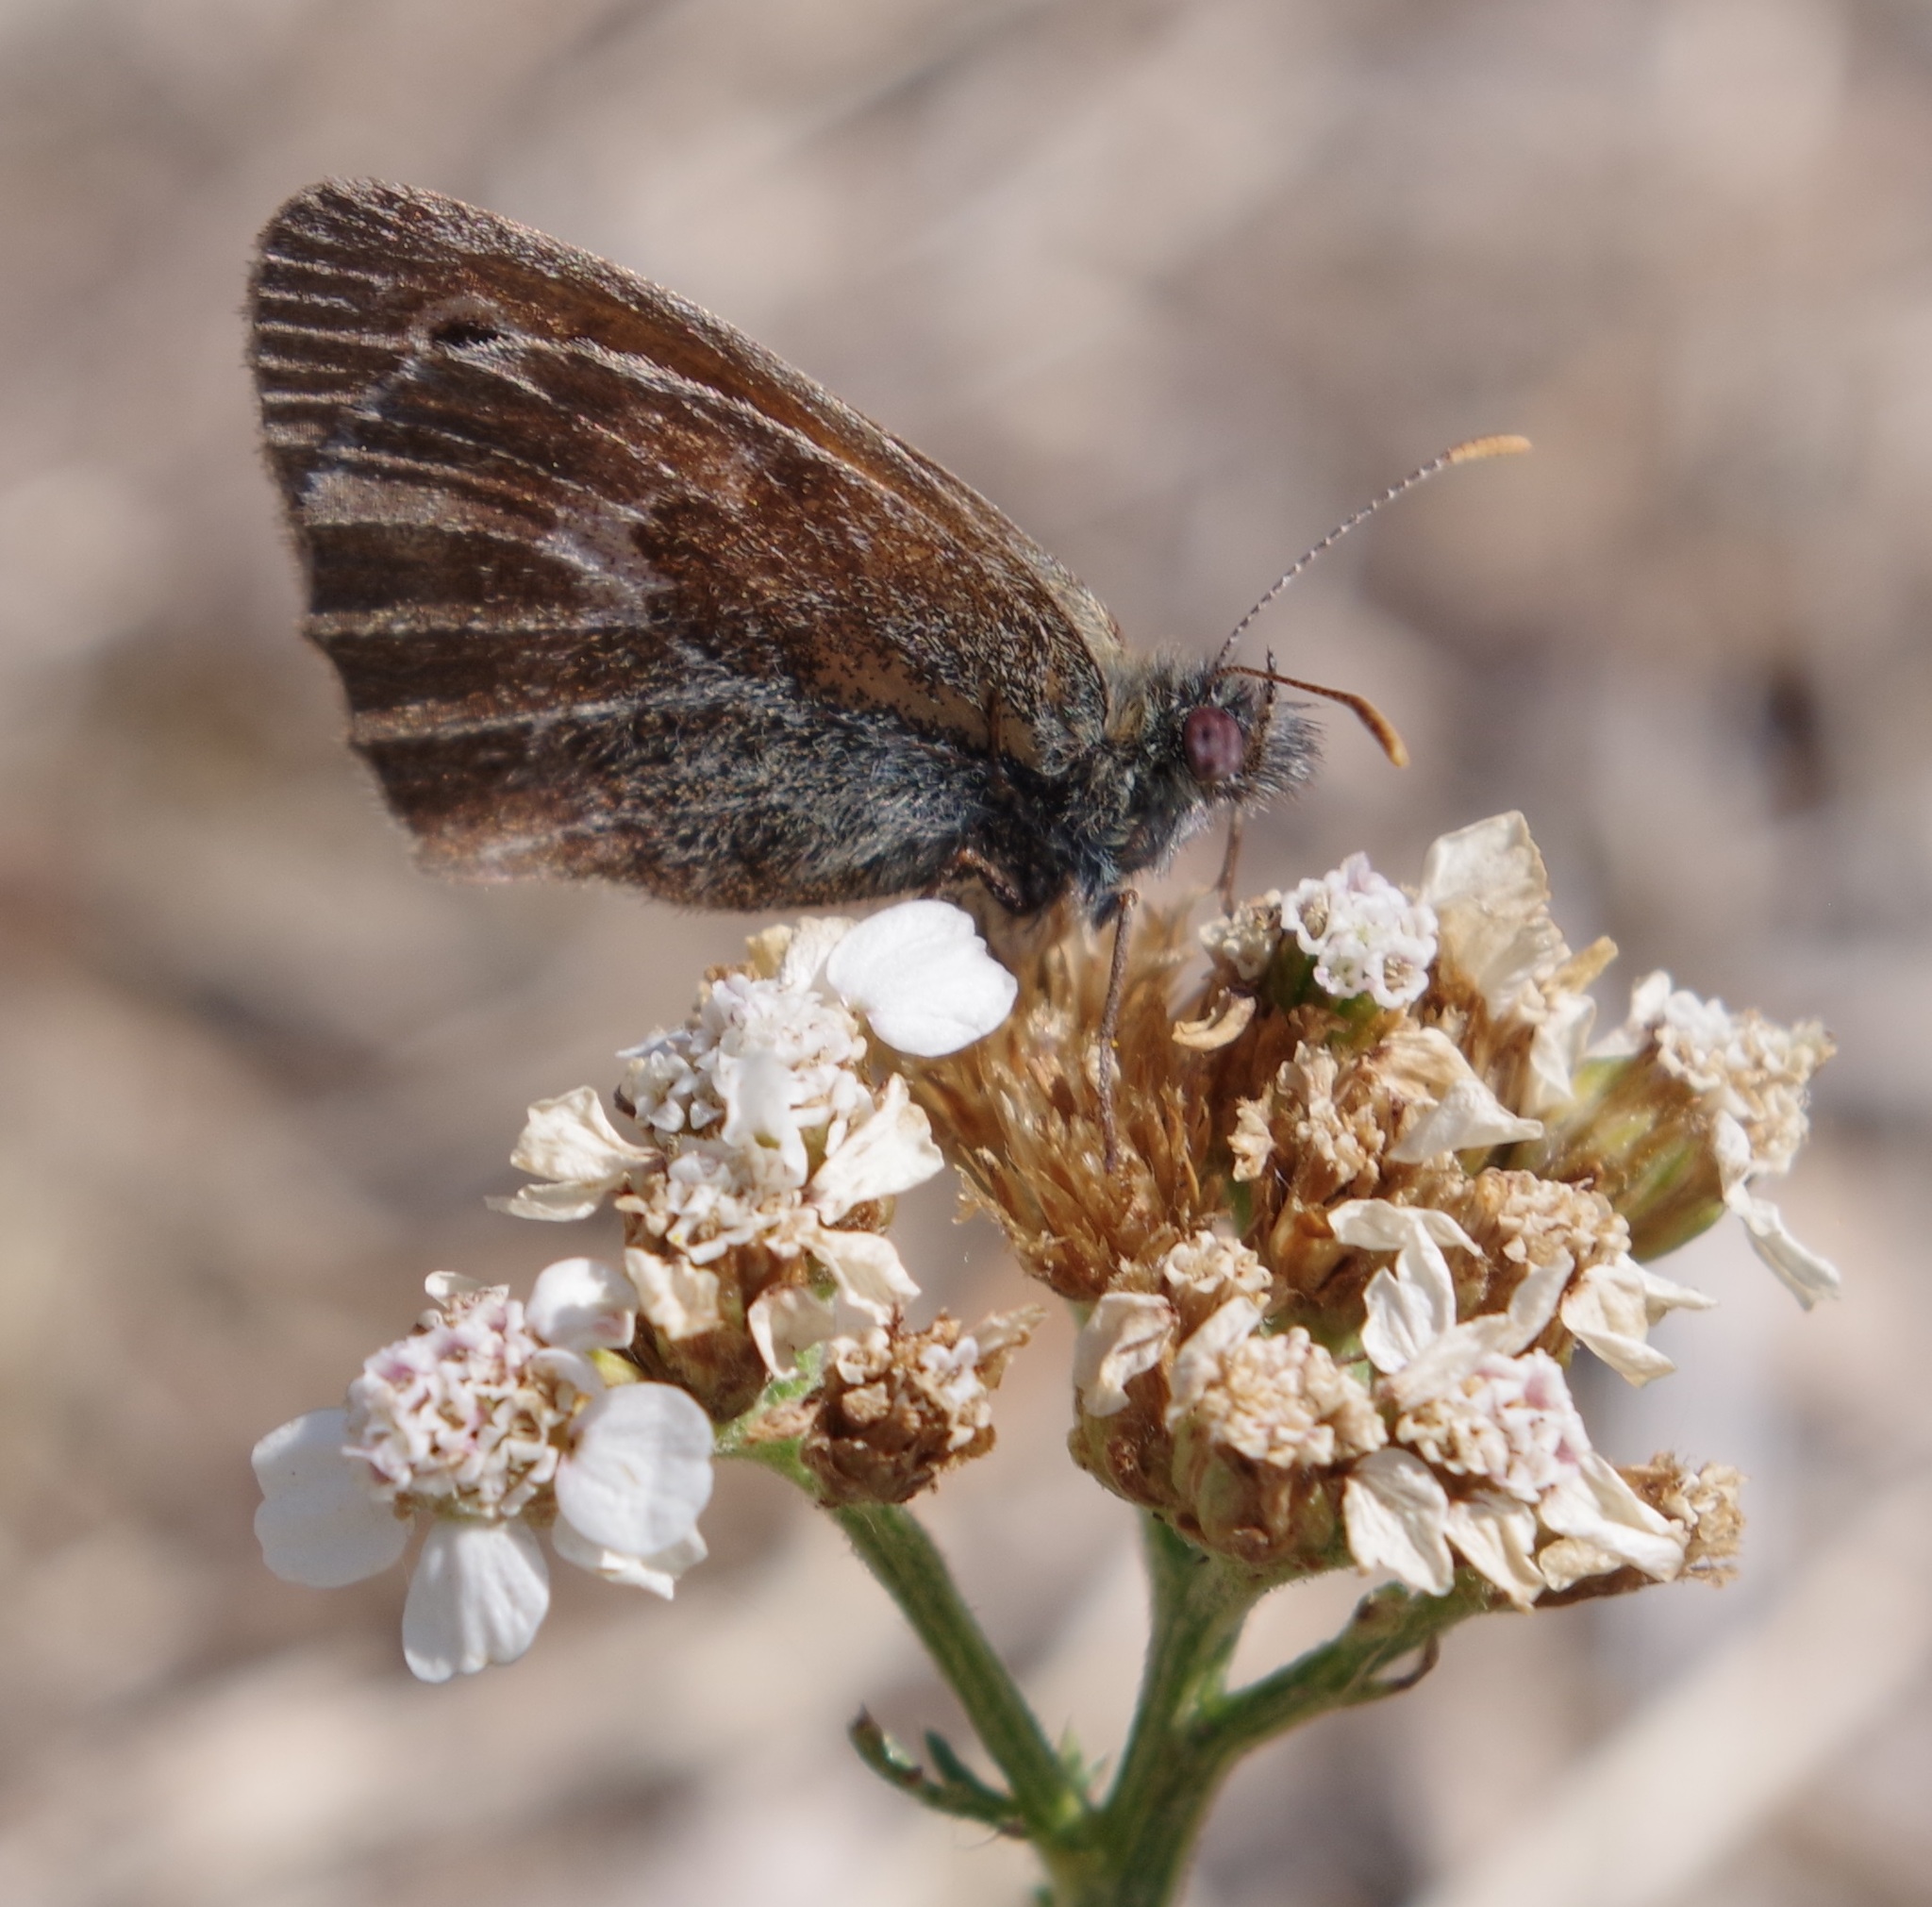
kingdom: Animalia
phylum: Arthropoda
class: Insecta
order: Lepidoptera
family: Nymphalidae
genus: Coenonympha
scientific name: Coenonympha pamphilus
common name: Small heath
